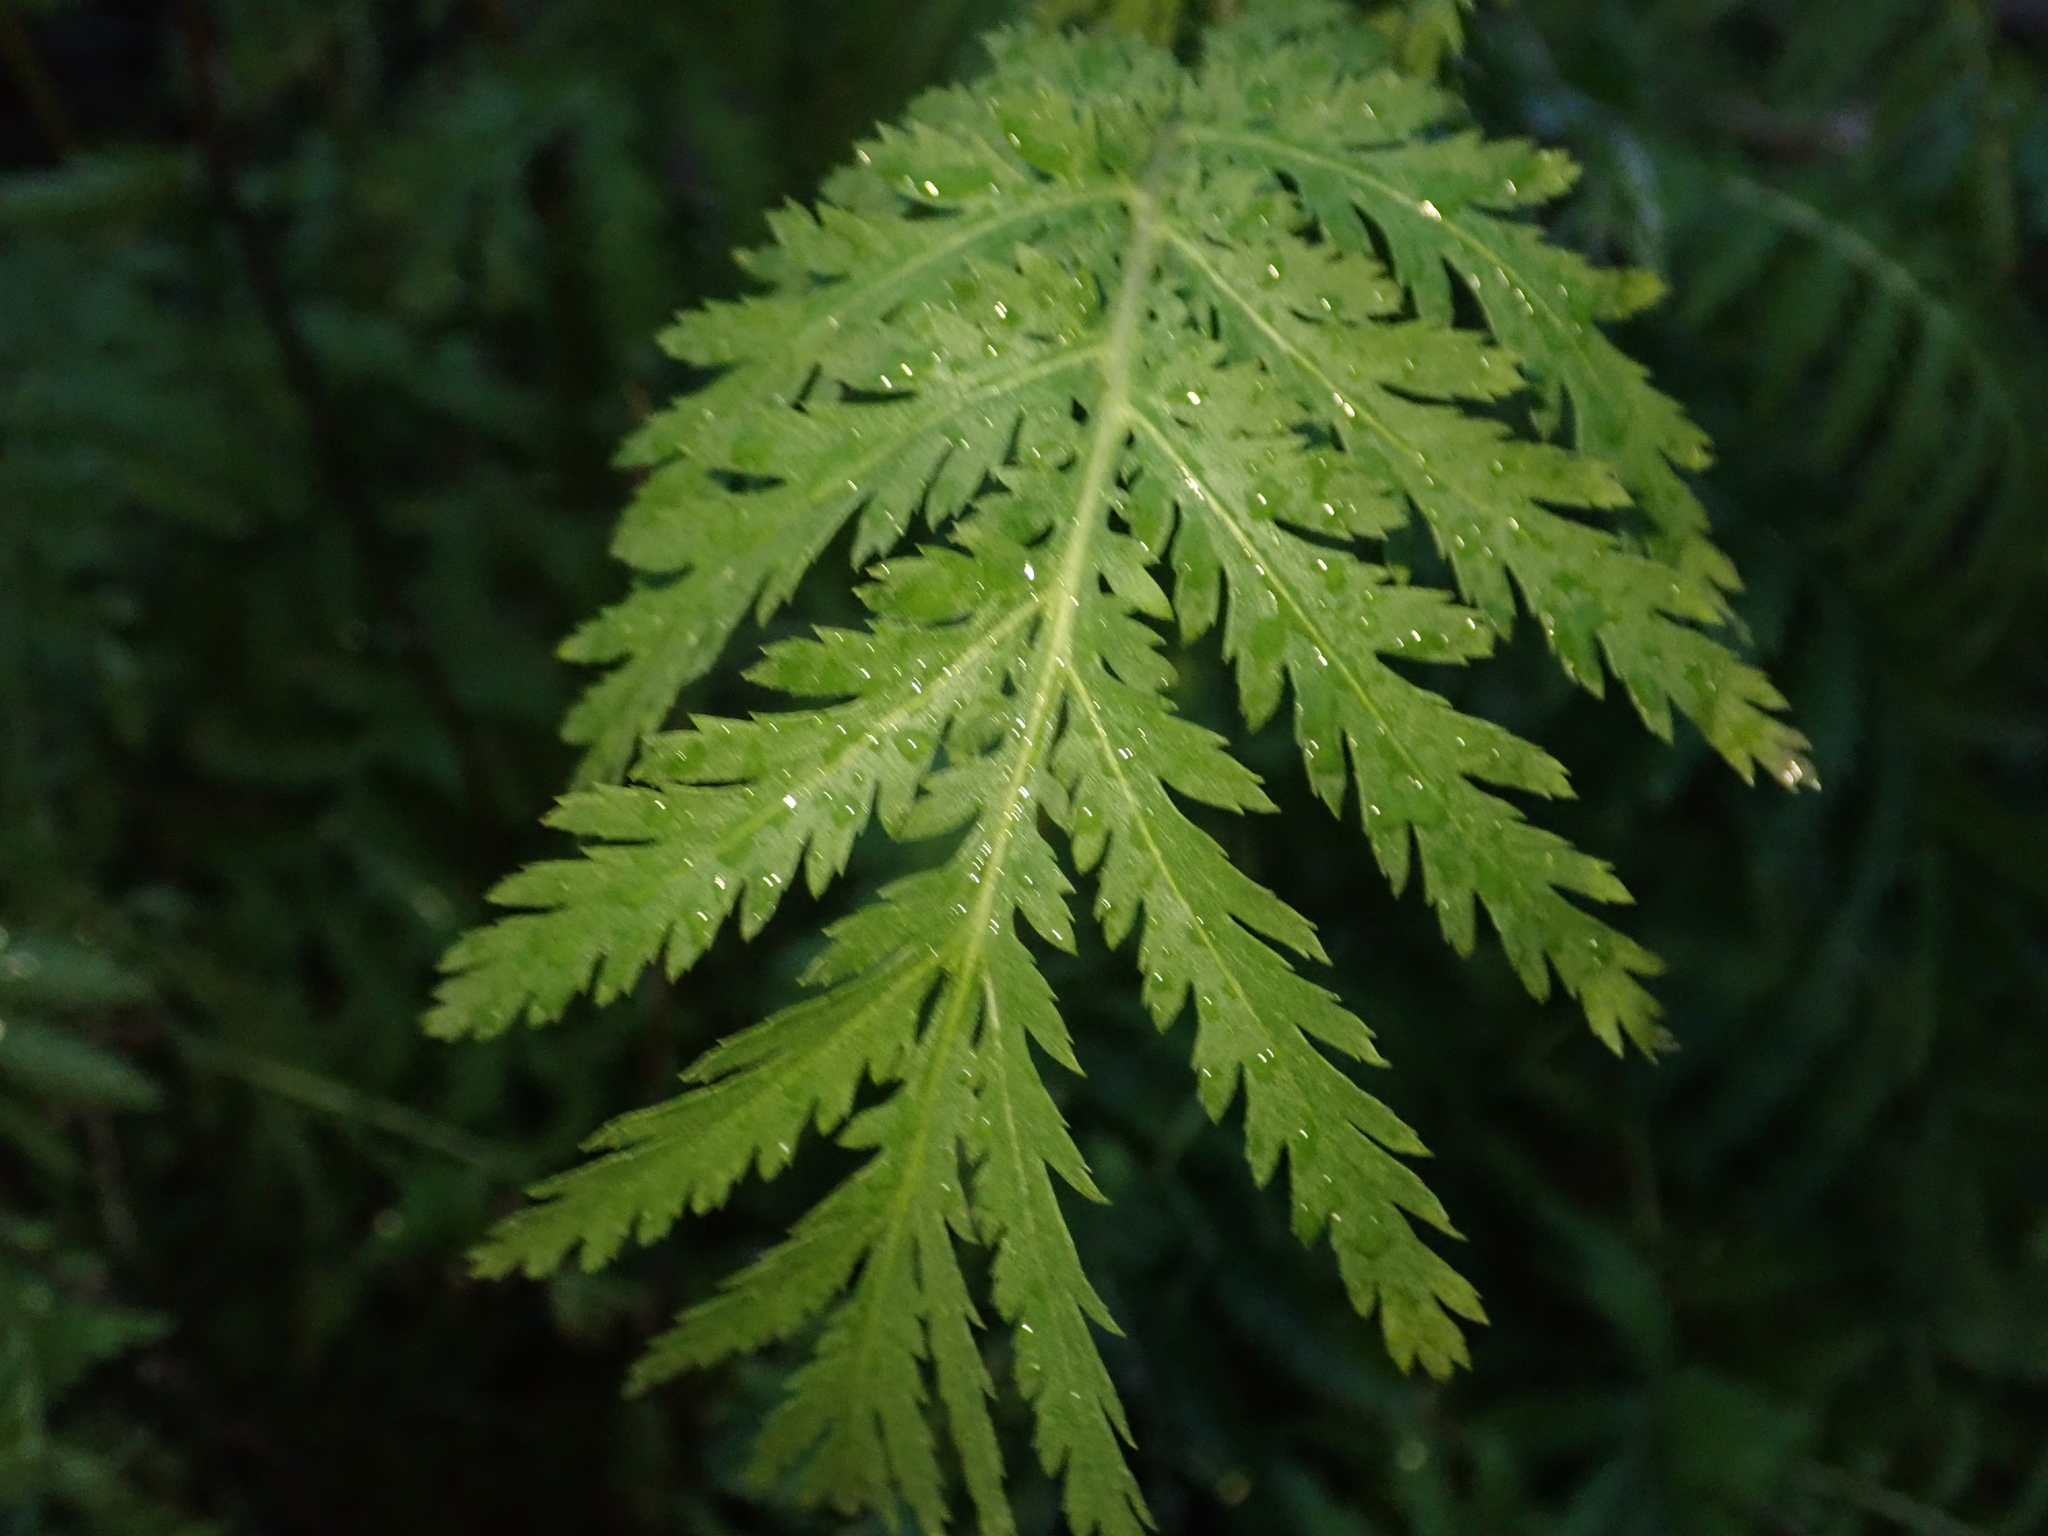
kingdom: Plantae
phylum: Tracheophyta
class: Magnoliopsida
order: Asterales
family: Asteraceae
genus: Tanacetum
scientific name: Tanacetum vulgare
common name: Common tansy
